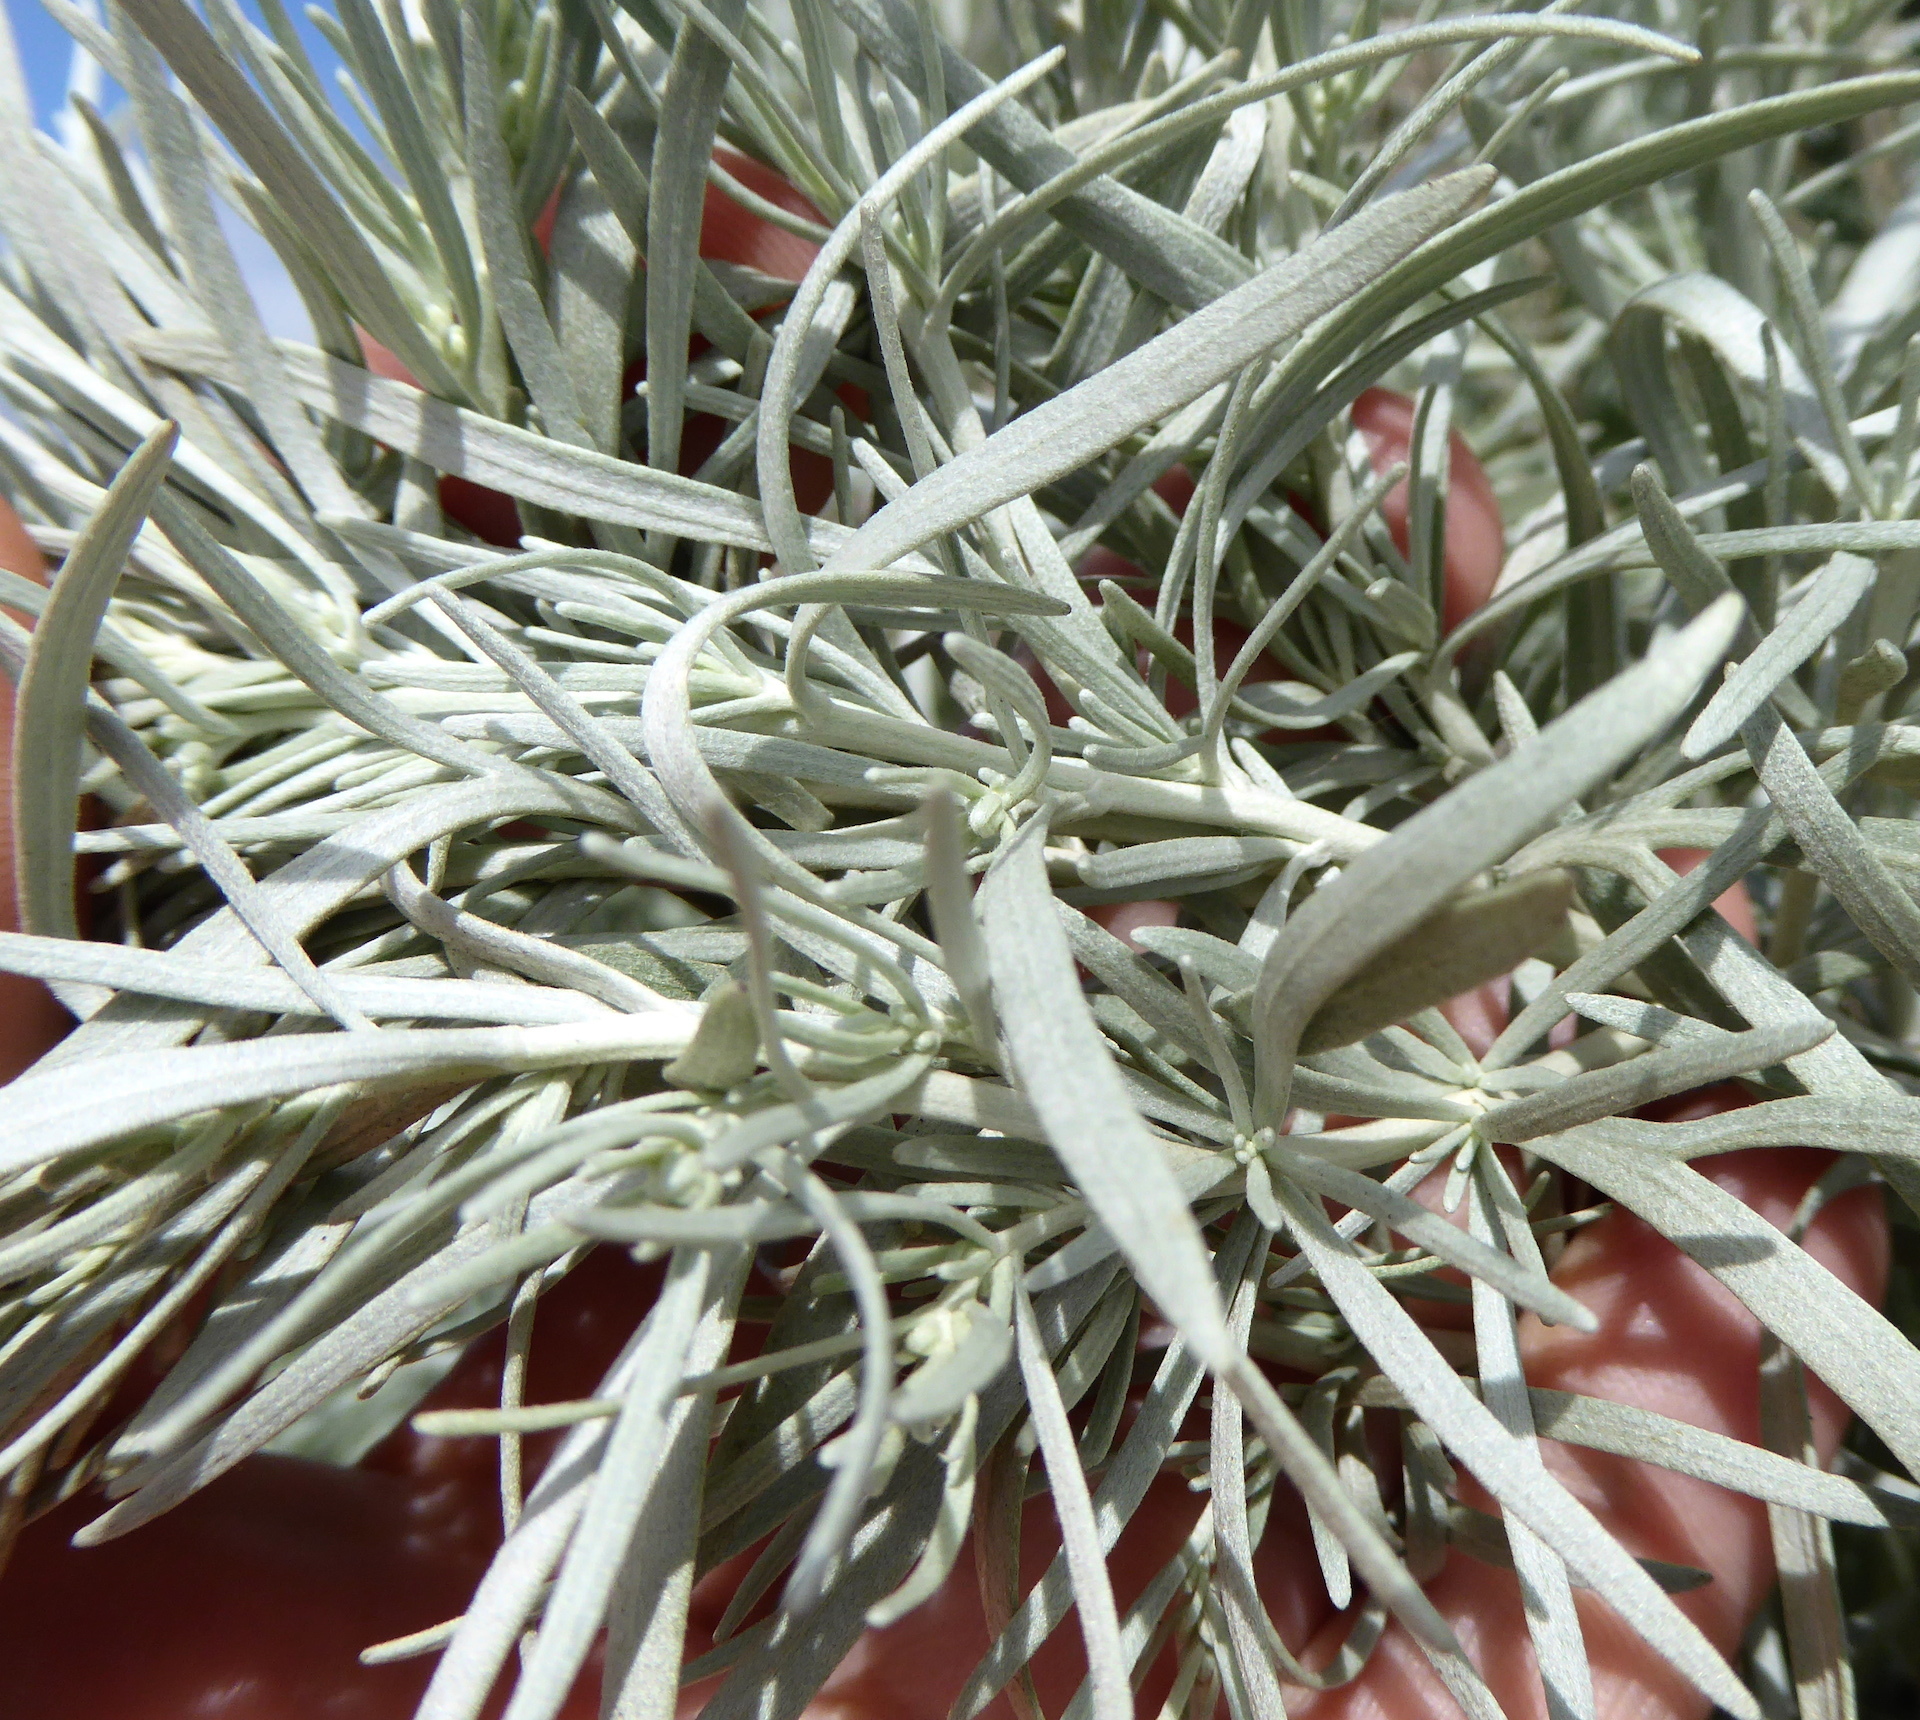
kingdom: Plantae
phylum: Tracheophyta
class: Magnoliopsida
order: Asterales
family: Asteraceae
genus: Artemisia
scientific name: Artemisia californica
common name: California sagebrush
